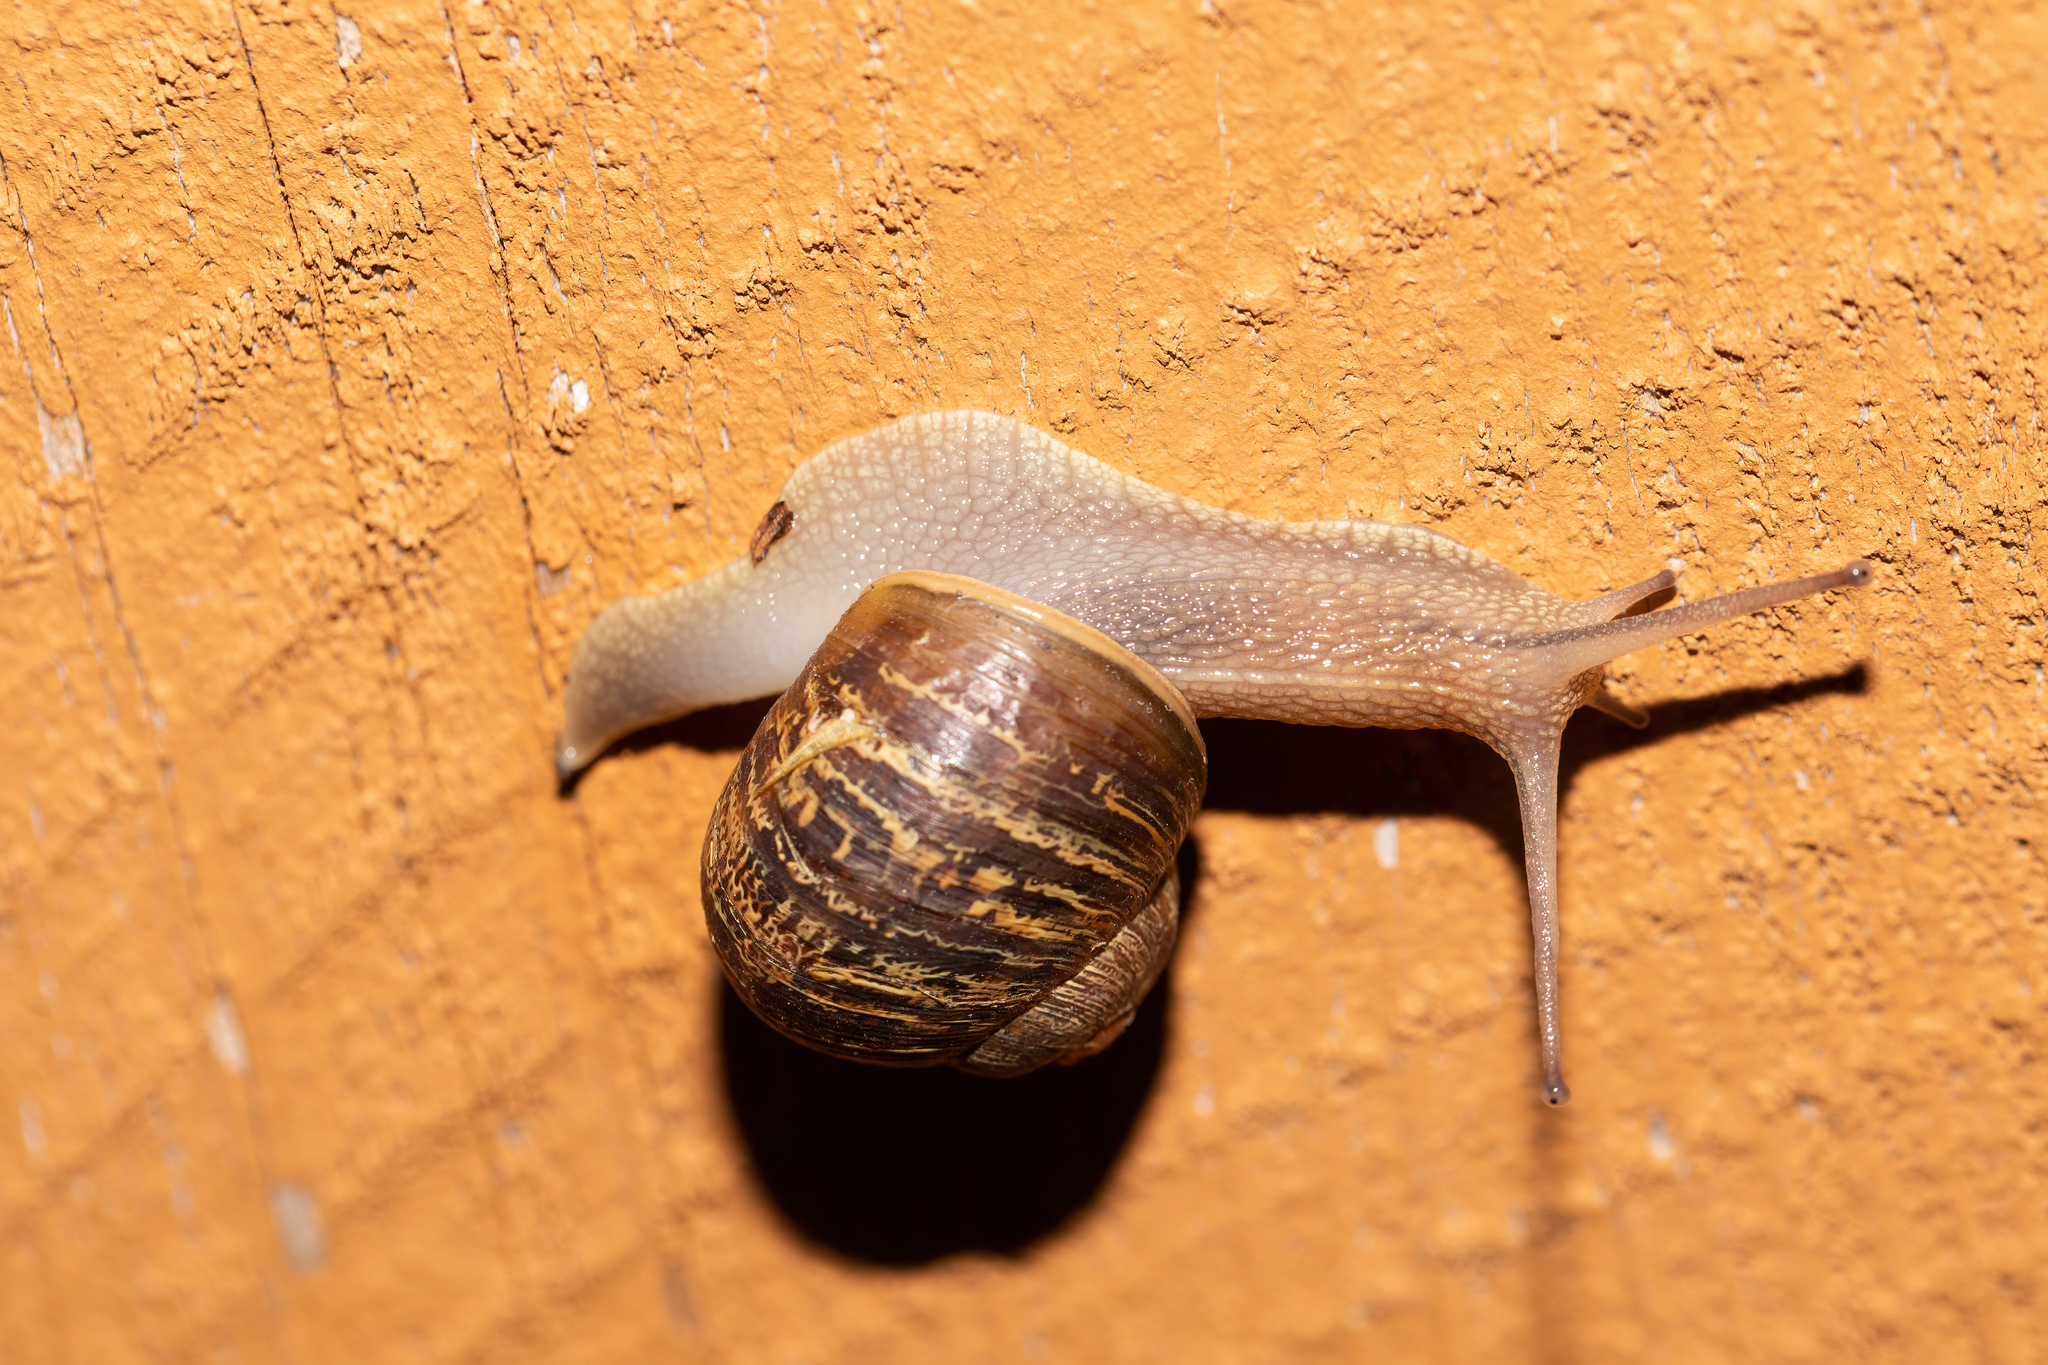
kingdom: Animalia
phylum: Mollusca
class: Gastropoda
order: Stylommatophora
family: Helicidae
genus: Cornu
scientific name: Cornu aspersum
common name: Brown garden snail
